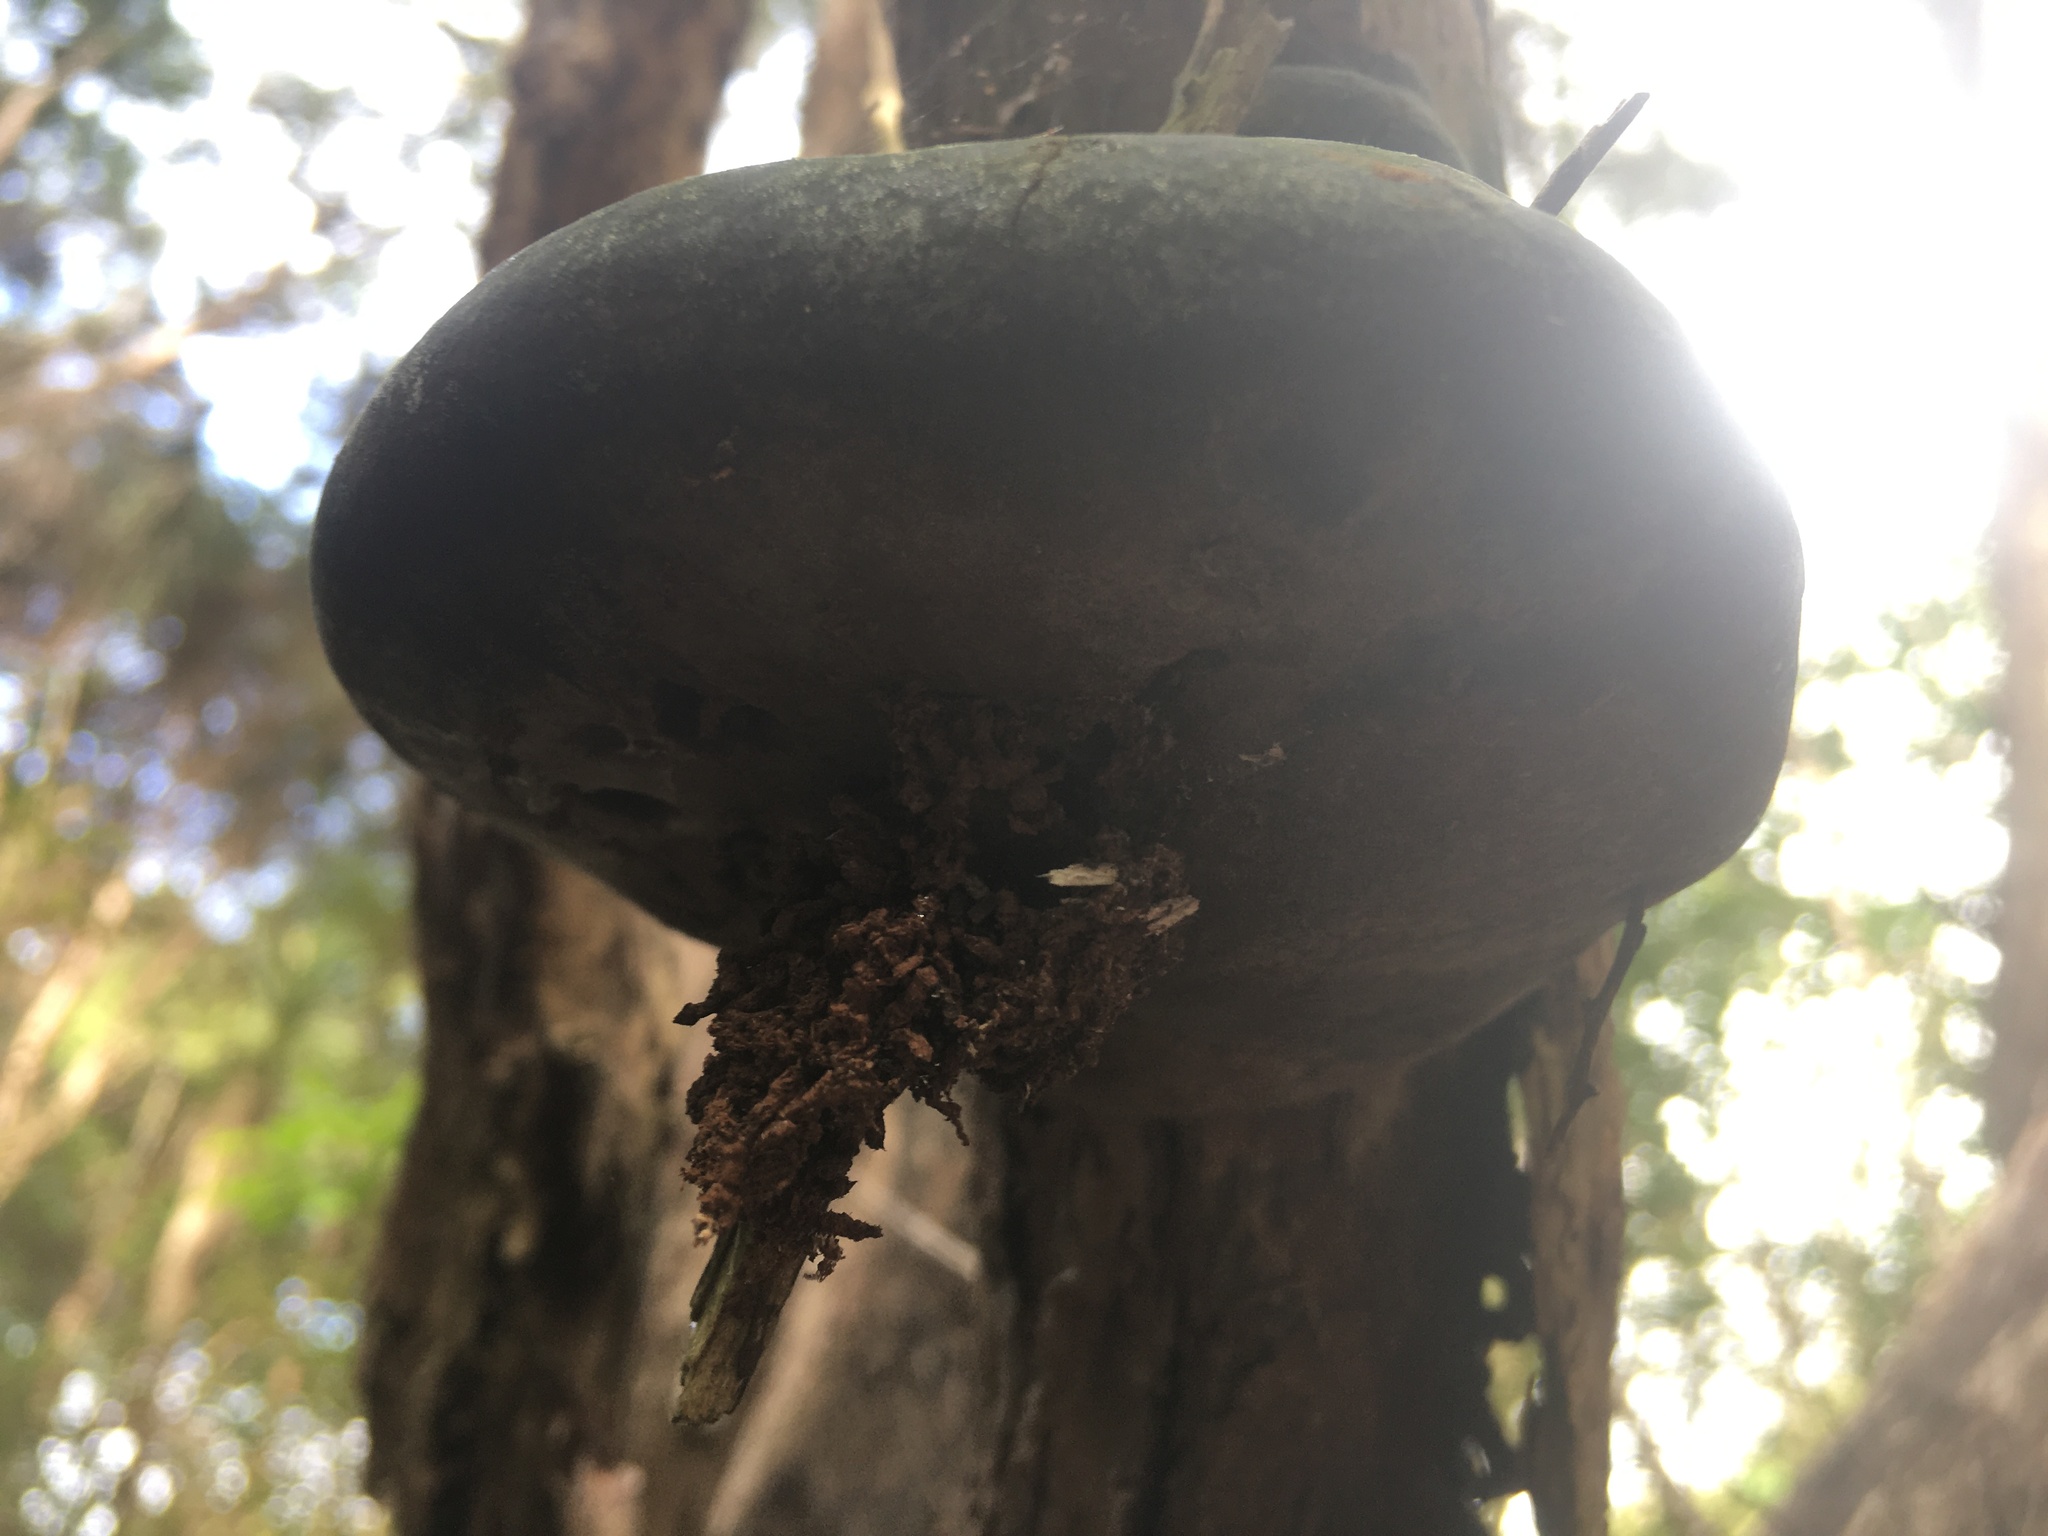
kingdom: Fungi
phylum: Basidiomycota
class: Agaricomycetes
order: Hymenochaetales
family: Hymenochaetaceae
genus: Fomitiporia
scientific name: Fomitiporia
